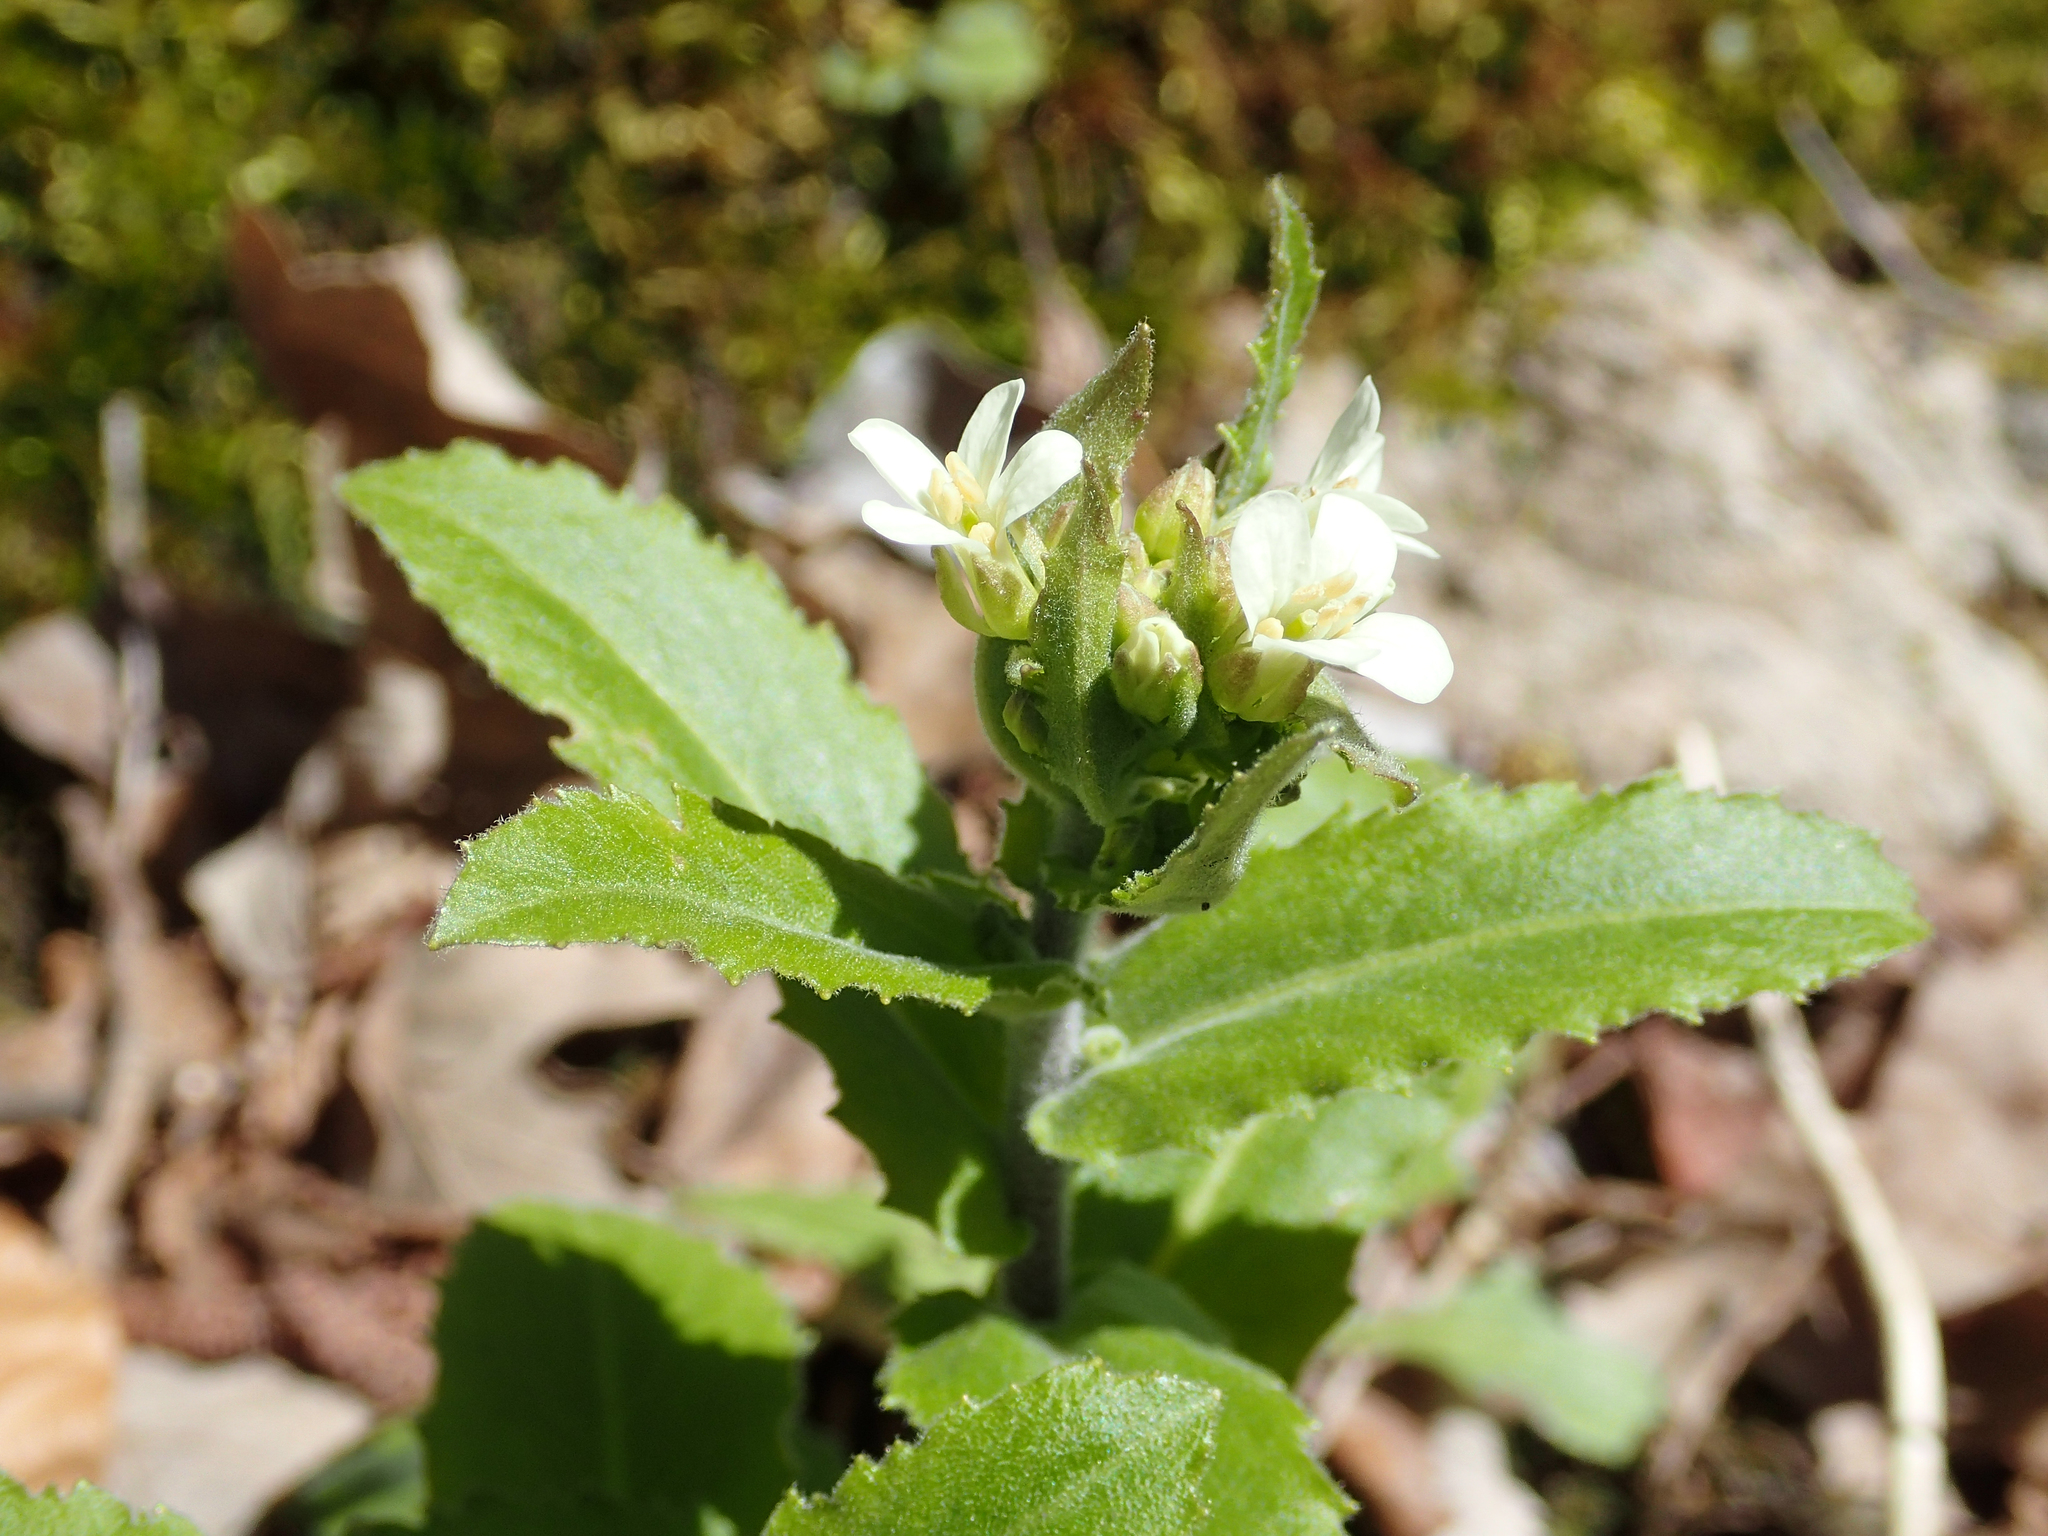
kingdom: Plantae
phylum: Tracheophyta
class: Magnoliopsida
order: Brassicales
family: Brassicaceae
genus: Pseudoturritis
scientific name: Pseudoturritis turrita
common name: Tower cress
